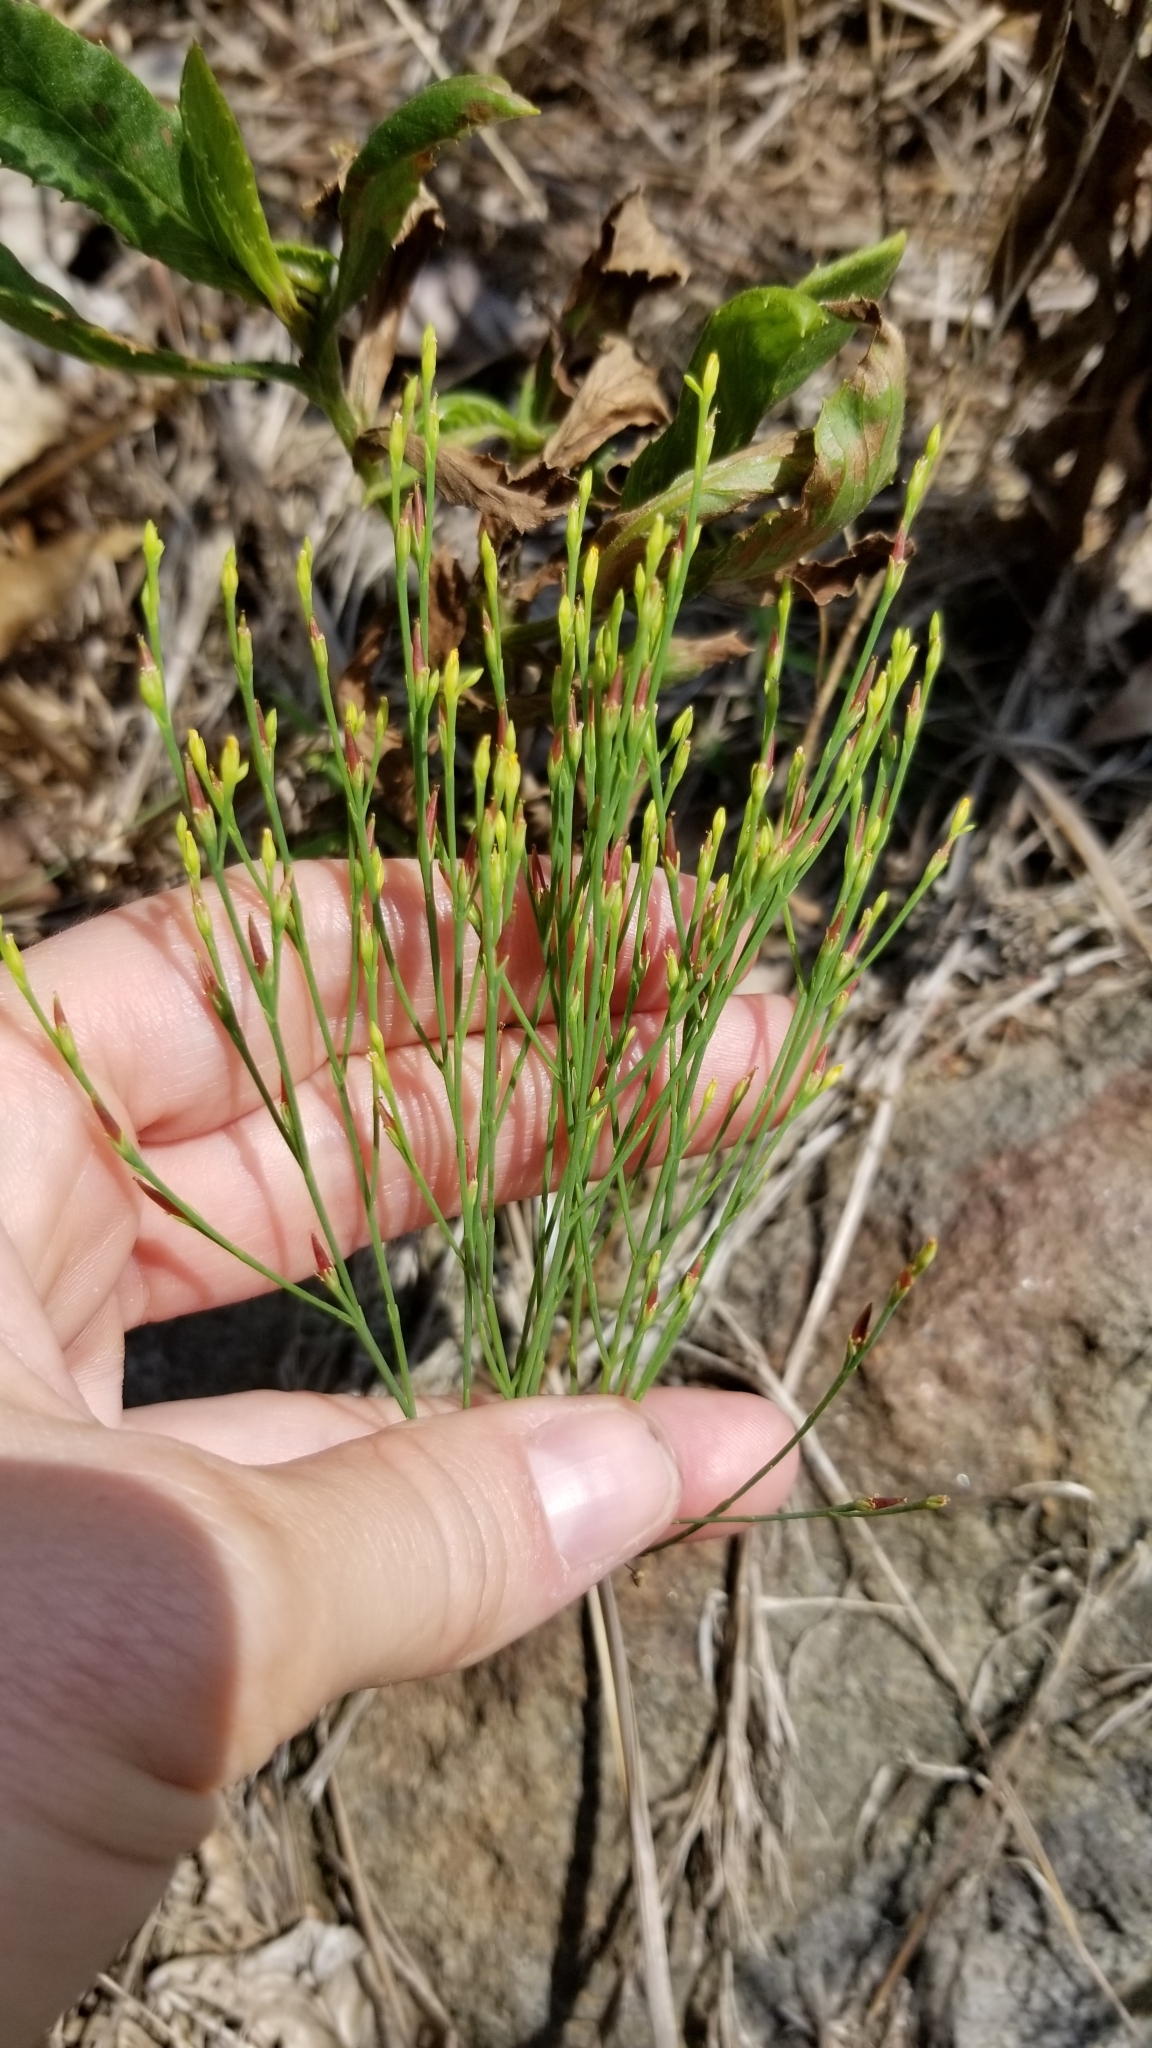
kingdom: Plantae
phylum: Tracheophyta
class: Magnoliopsida
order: Malpighiales
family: Hypericaceae
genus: Hypericum
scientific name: Hypericum gentianoides
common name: Gentian-leaved st. john's-wort
